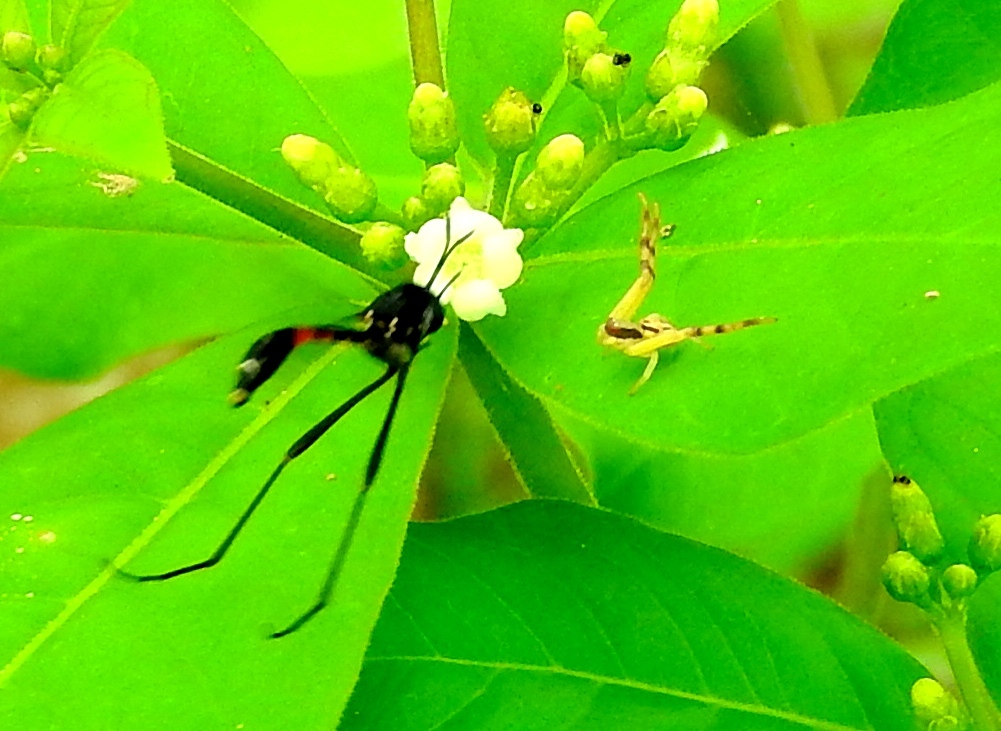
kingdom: Animalia
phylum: Arthropoda
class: Arachnida
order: Araneae
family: Thomisidae
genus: Misumenoides
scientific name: Misumenoides
